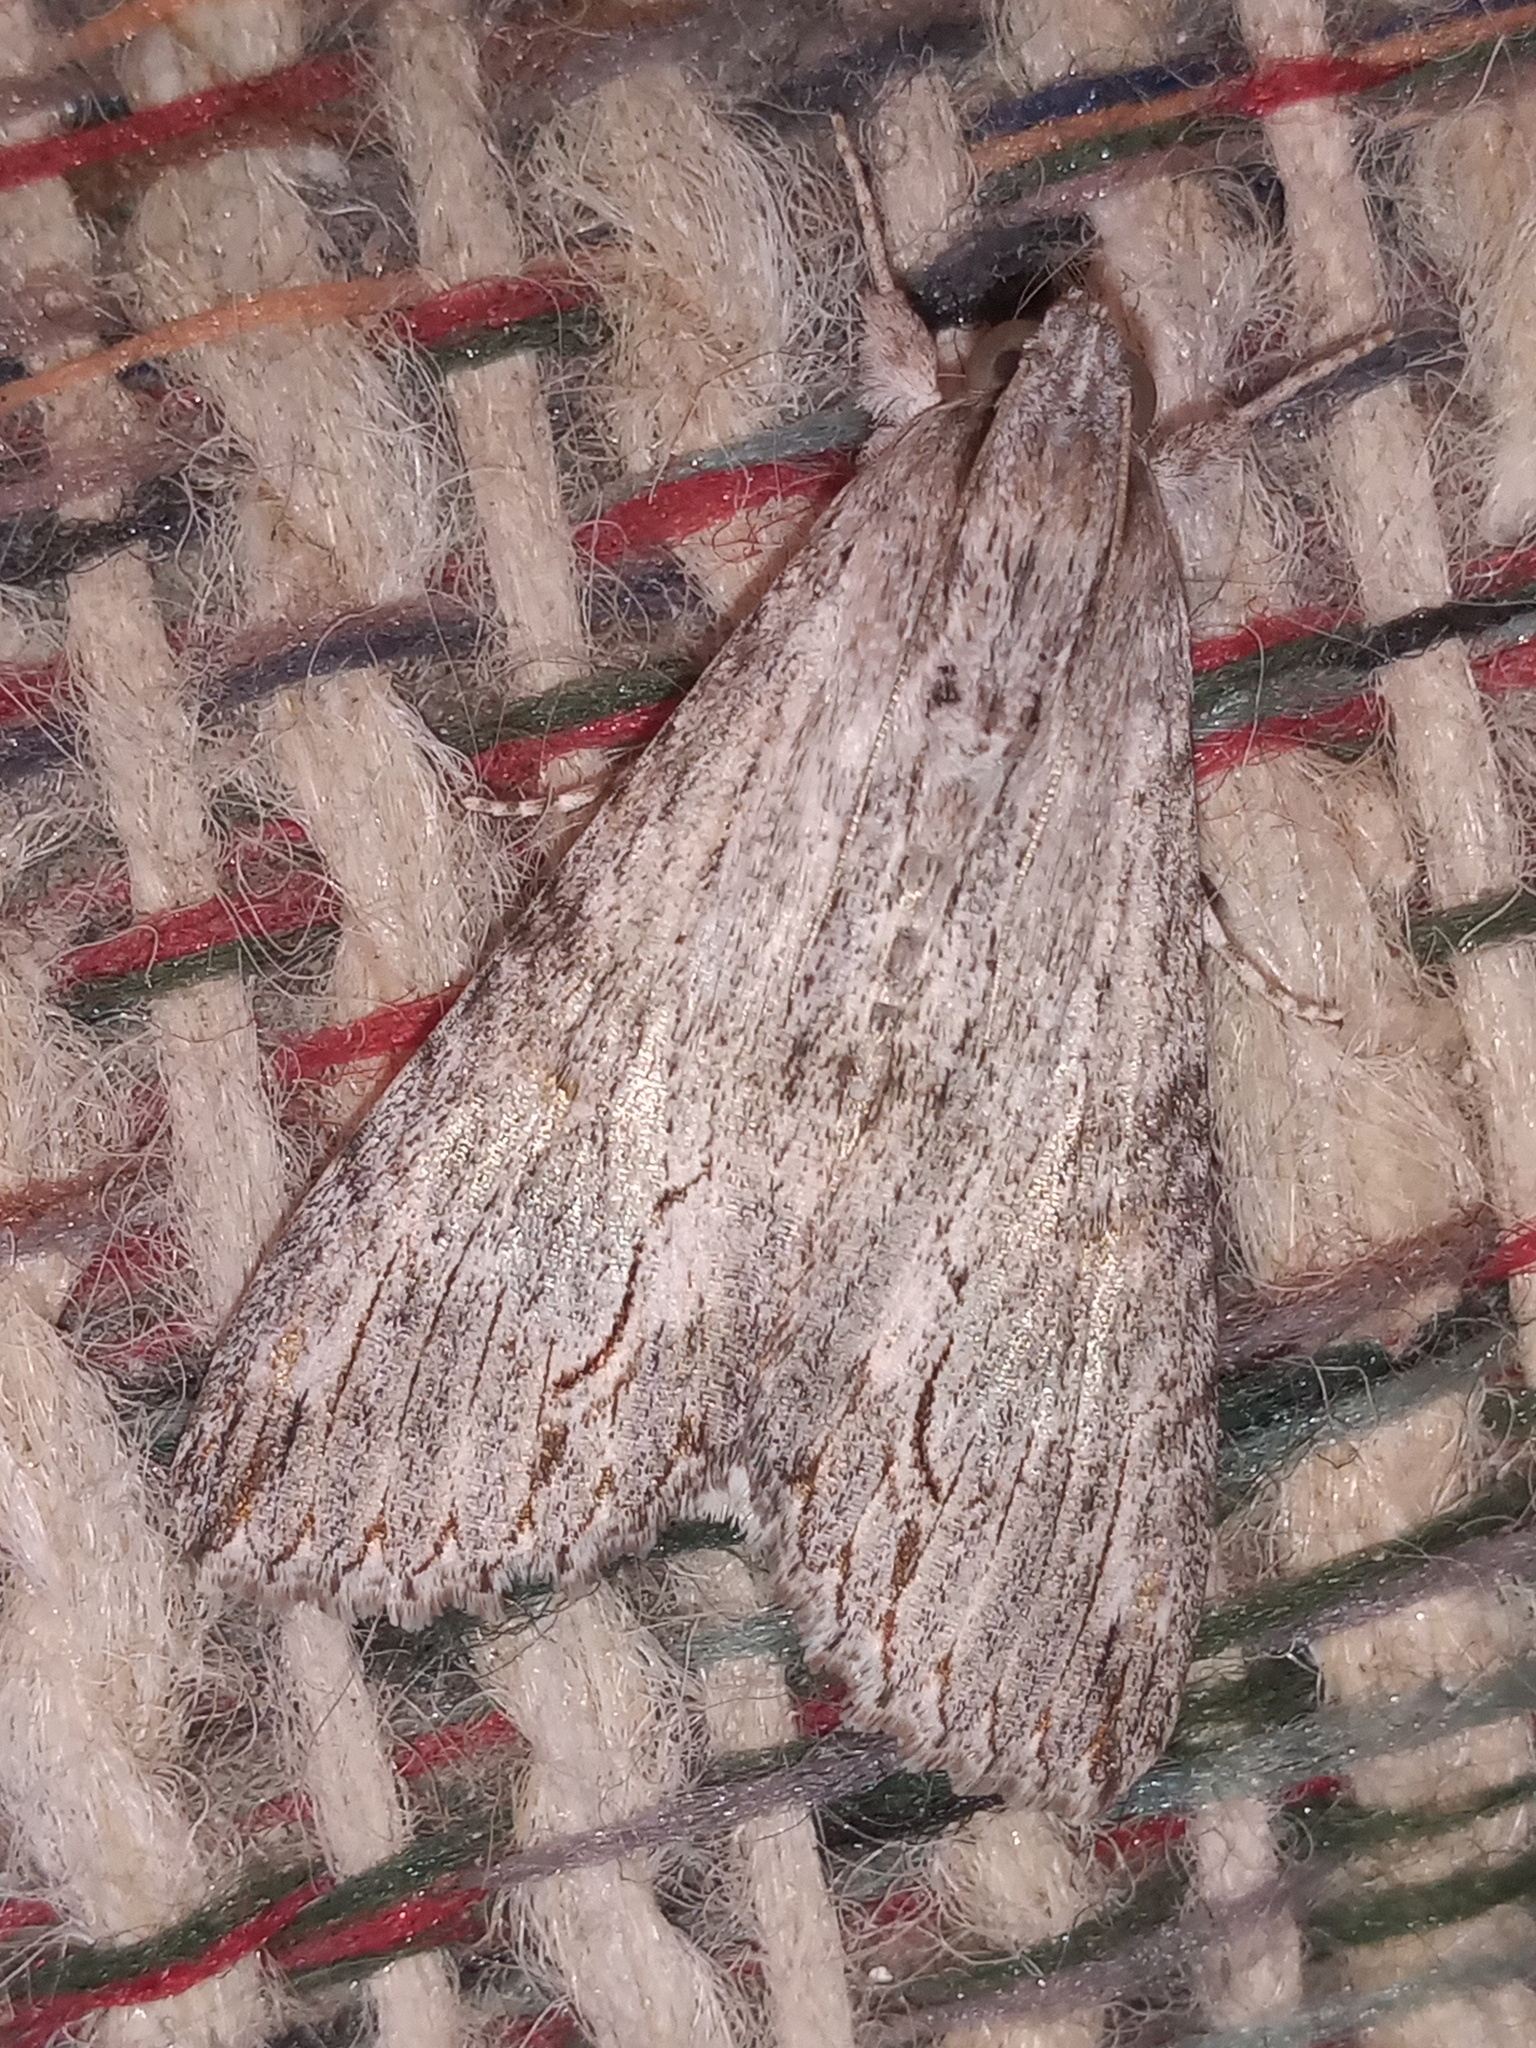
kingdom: Animalia
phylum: Arthropoda
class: Insecta
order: Lepidoptera
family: Erebidae
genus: Melipotis
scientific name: Melipotis acontioides
